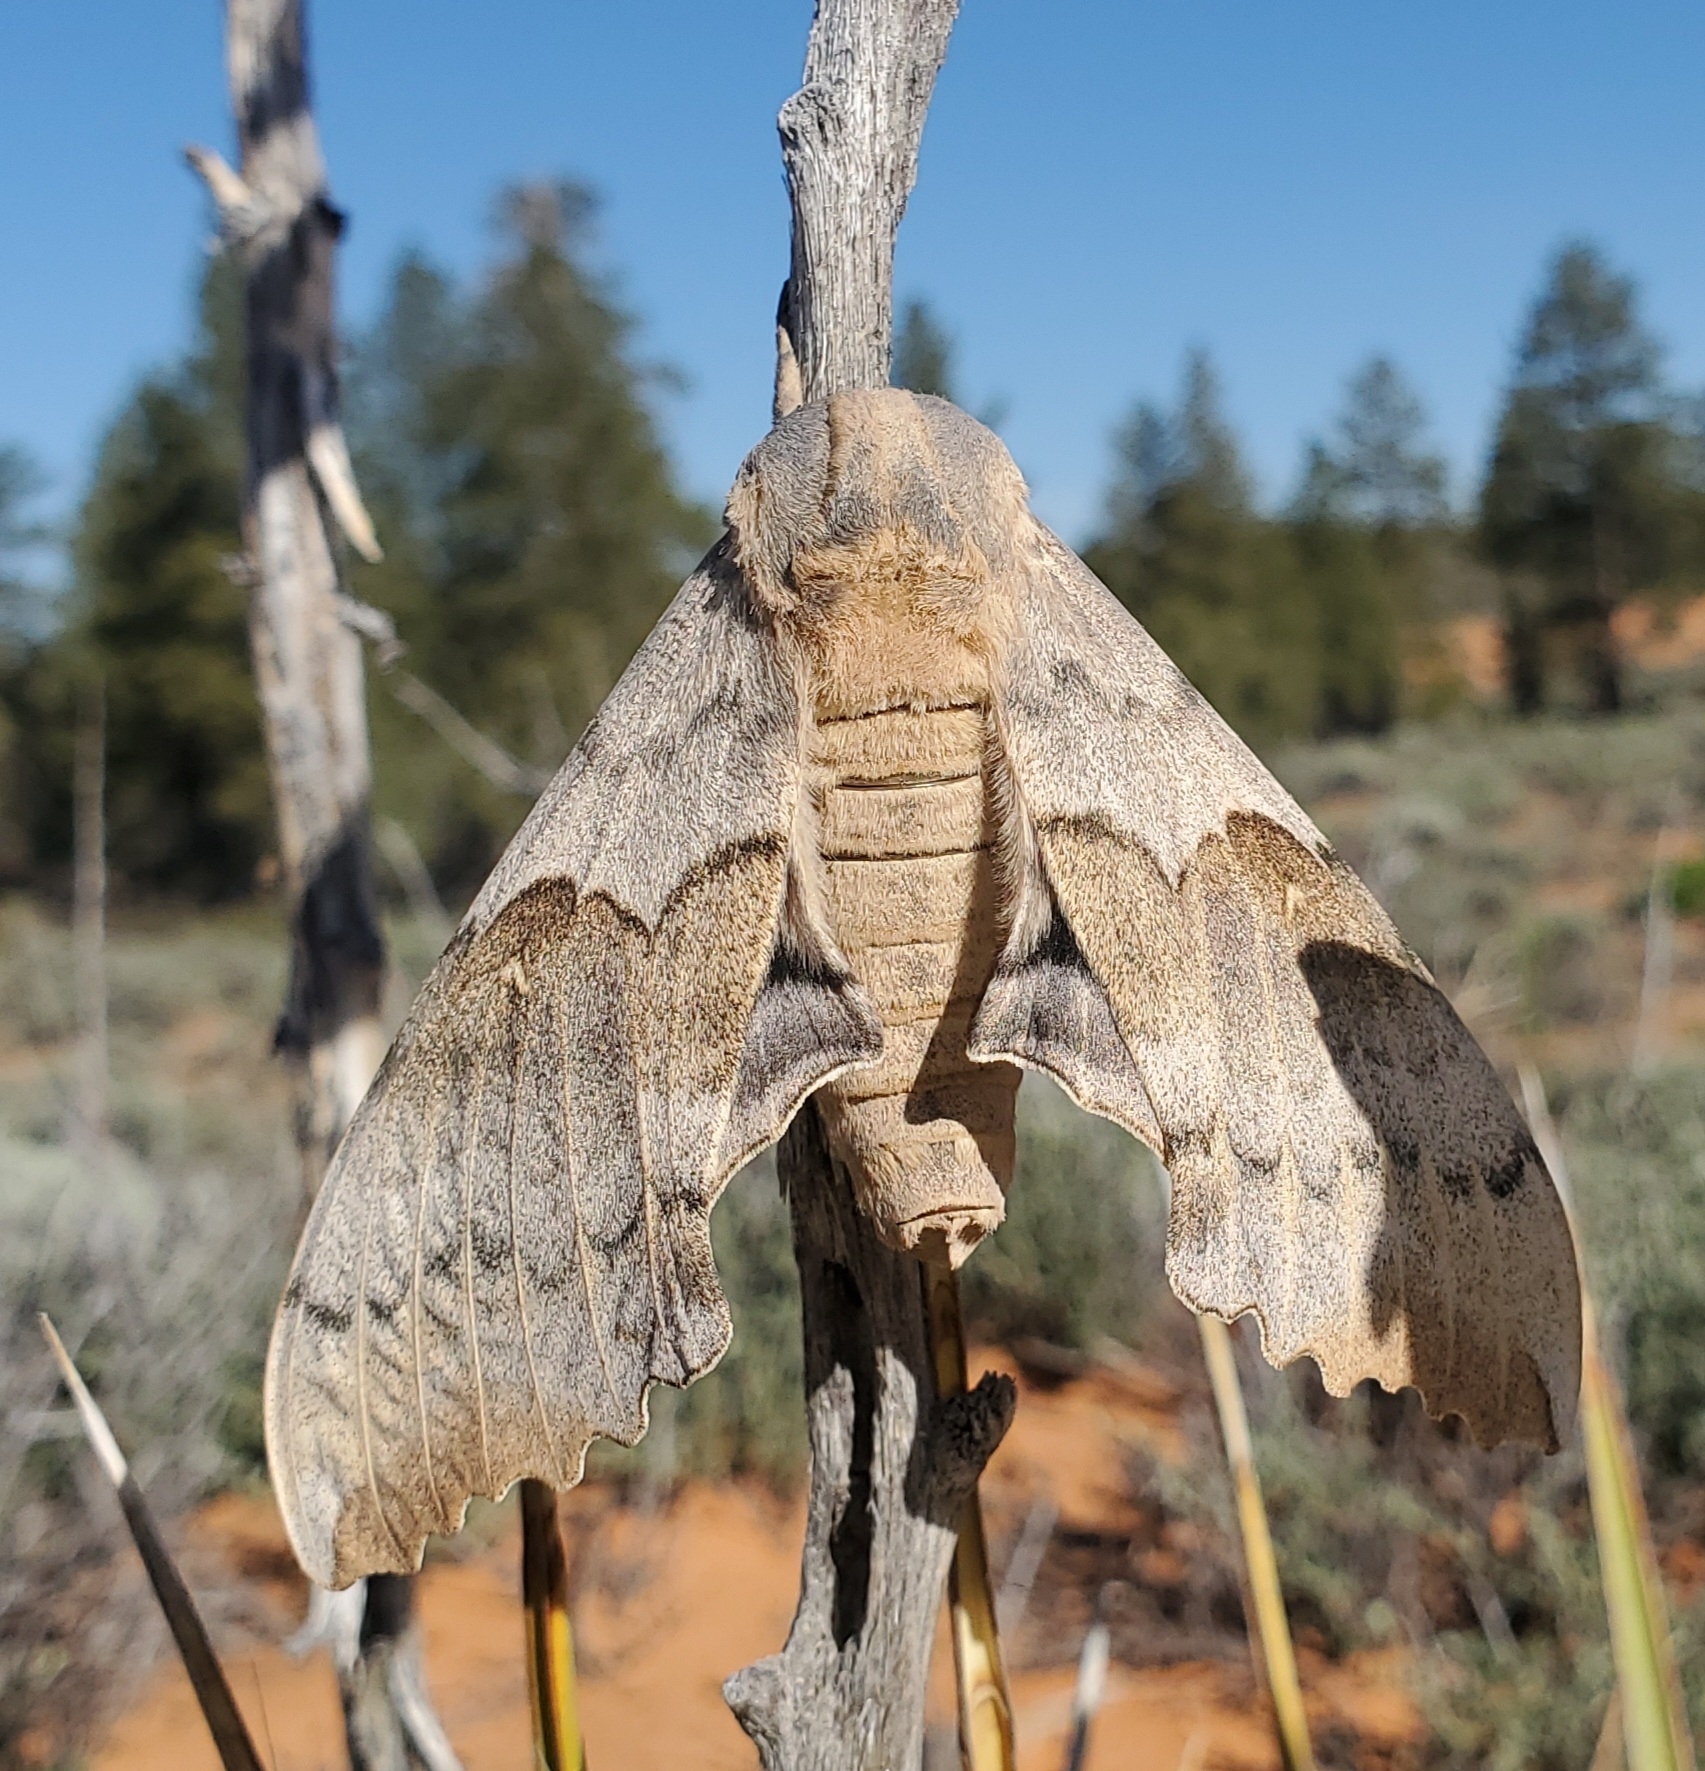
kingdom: Animalia
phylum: Arthropoda
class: Insecta
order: Lepidoptera
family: Sphingidae
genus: Pachysphinx
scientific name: Pachysphinx occidentalis
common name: Western poplar sphinx
